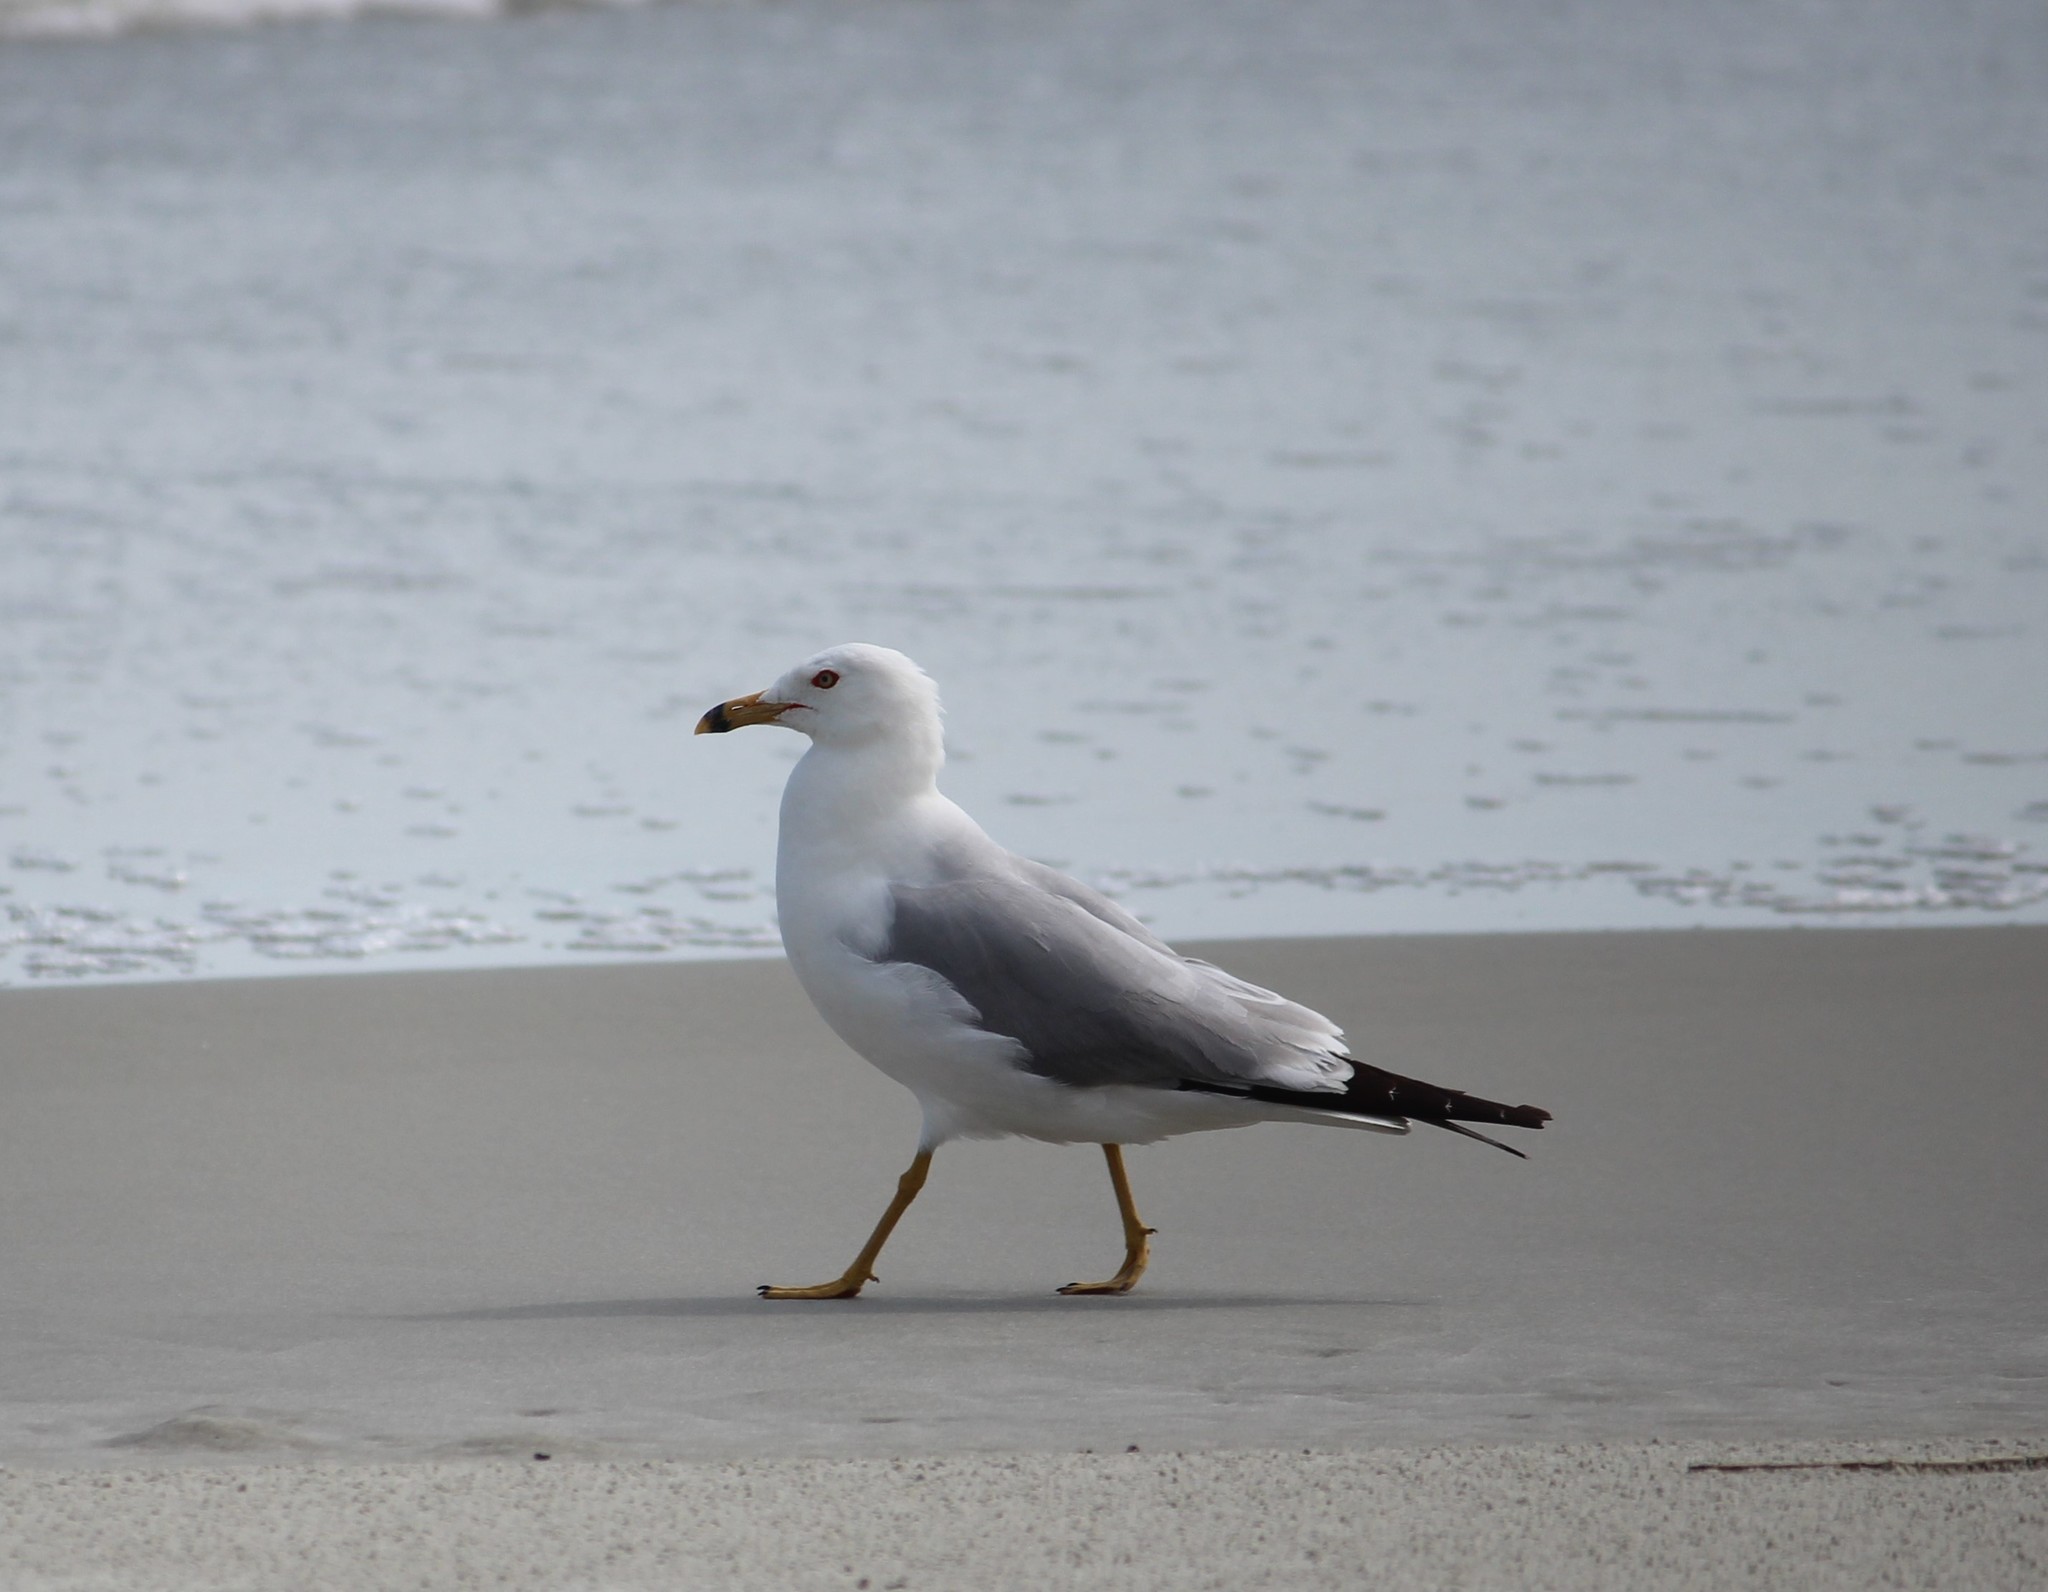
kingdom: Animalia
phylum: Chordata
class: Aves
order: Charadriiformes
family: Laridae
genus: Larus
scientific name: Larus delawarensis
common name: Ring-billed gull
